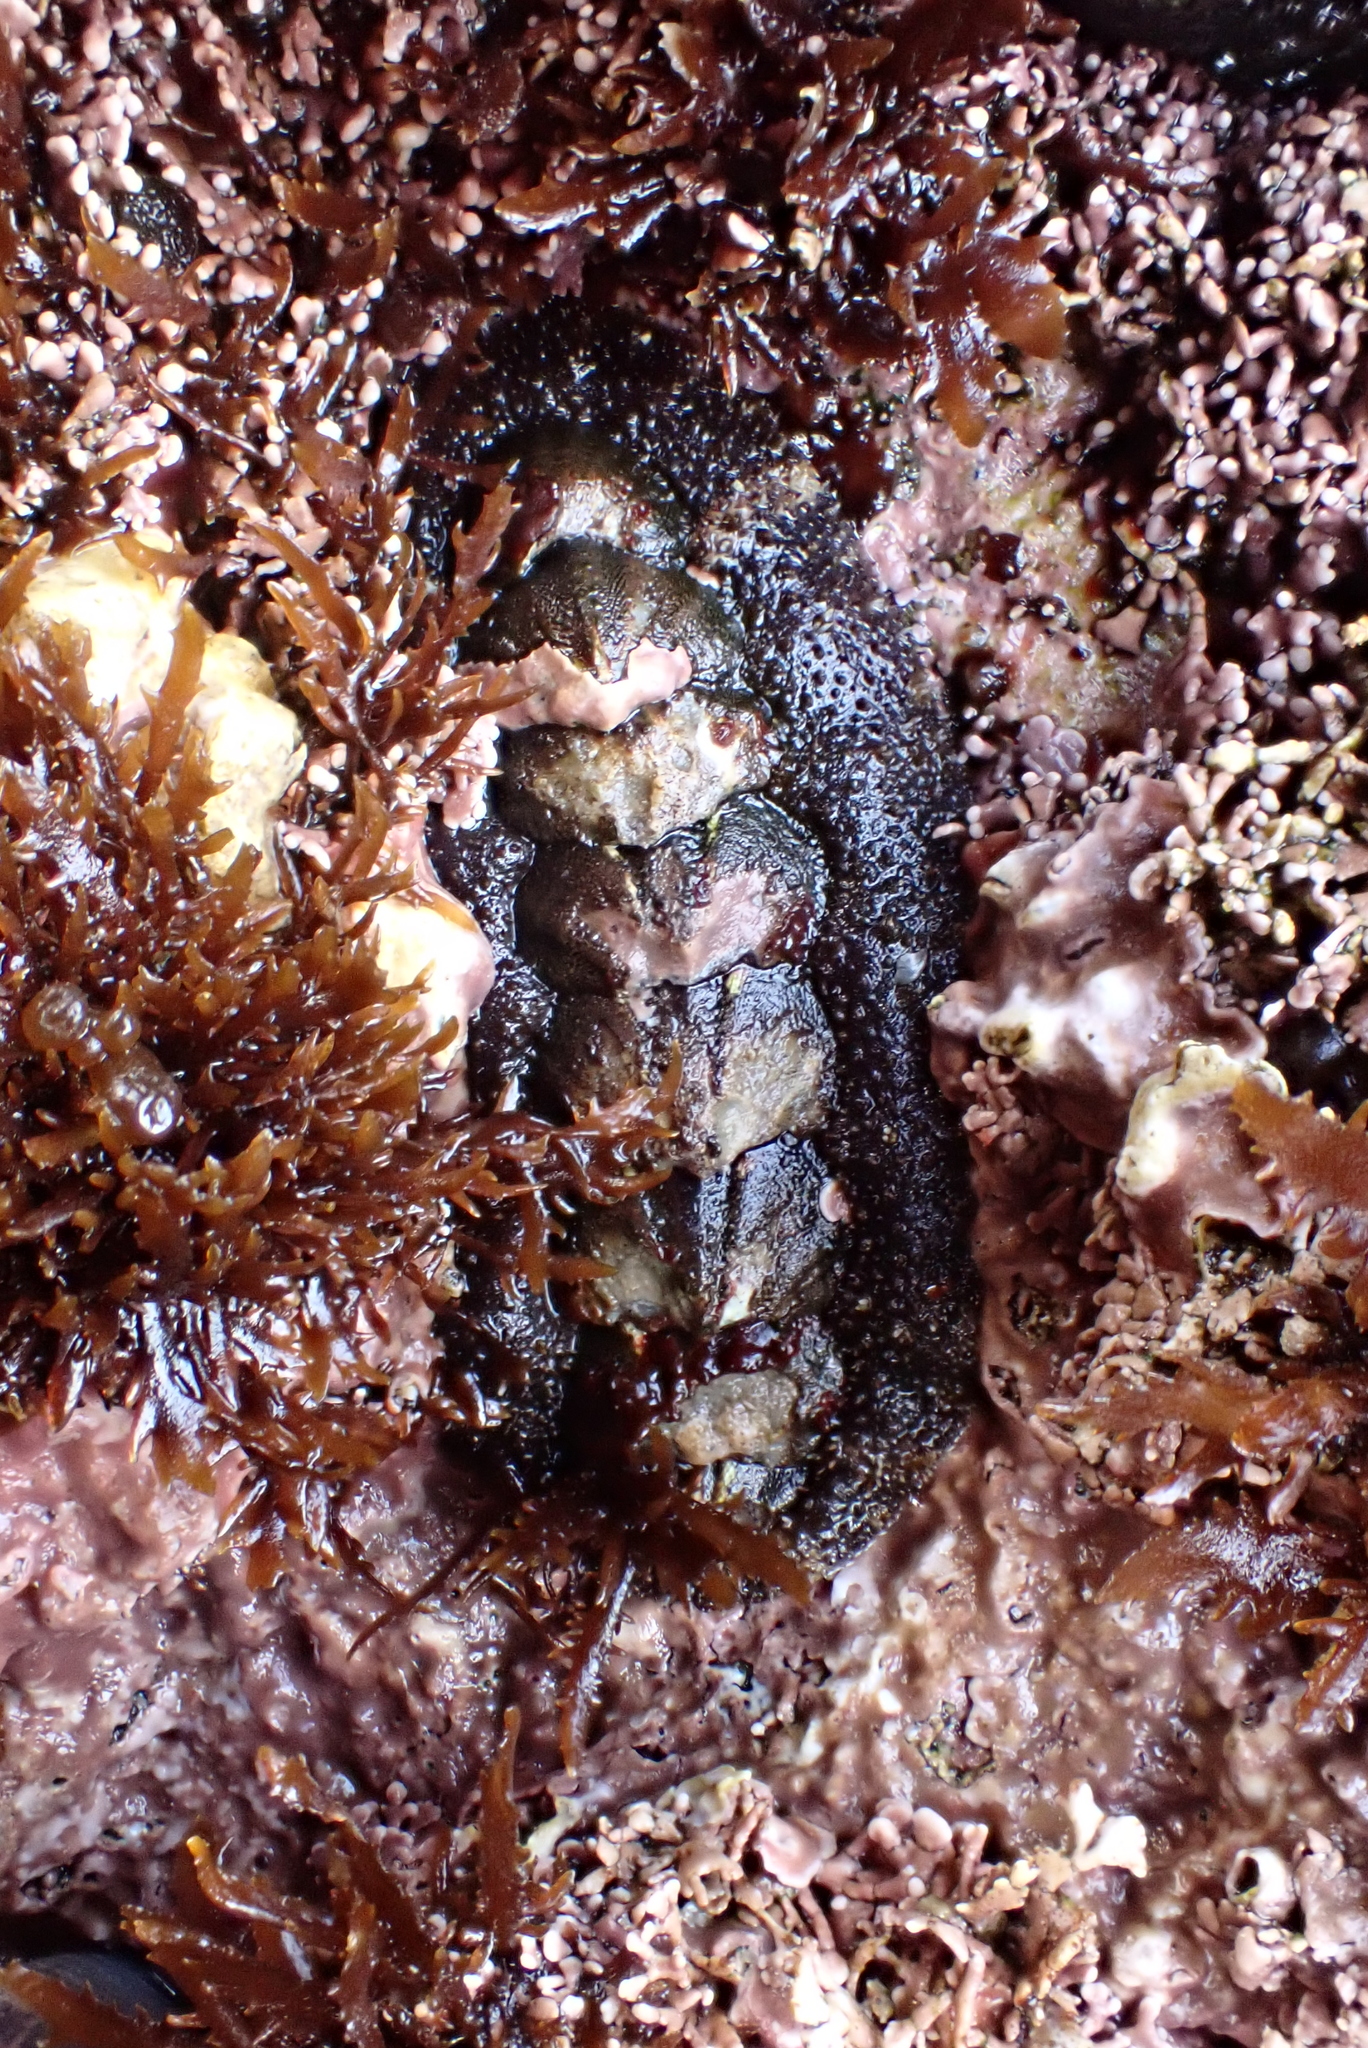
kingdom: Animalia
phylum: Mollusca
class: Polyplacophora
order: Chitonida
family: Tonicellidae
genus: Nuttallina
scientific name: Nuttallina californica
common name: California nuttall chiton
